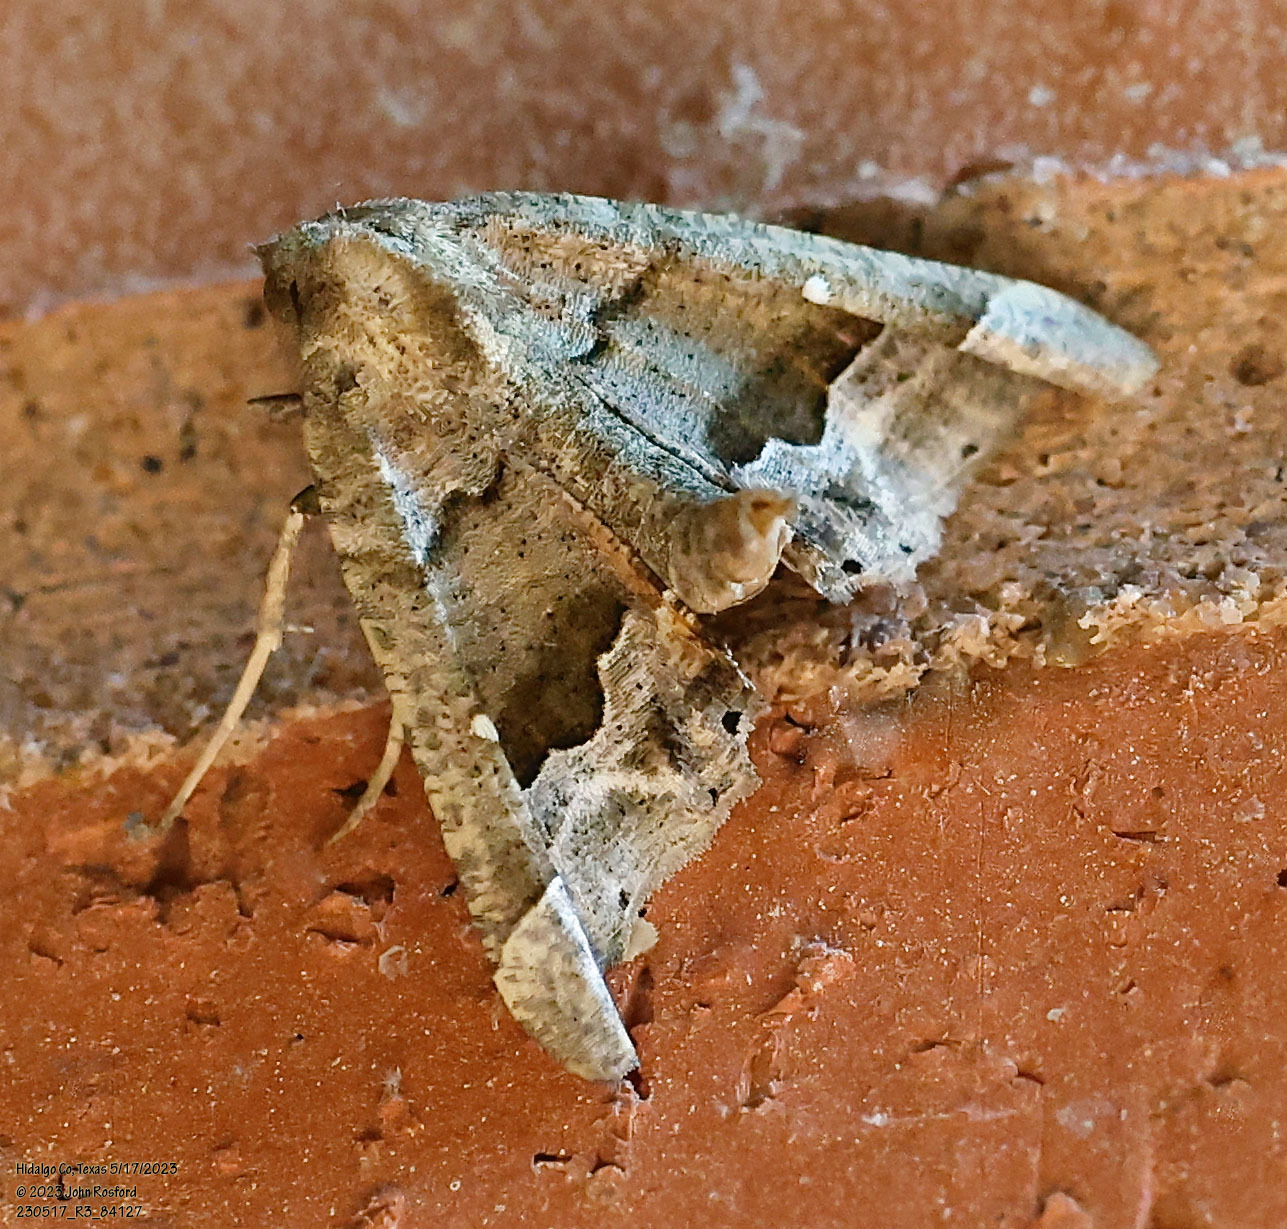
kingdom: Animalia
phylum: Arthropoda
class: Insecta
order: Lepidoptera
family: Geometridae
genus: Pero
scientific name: Pero meskaria
